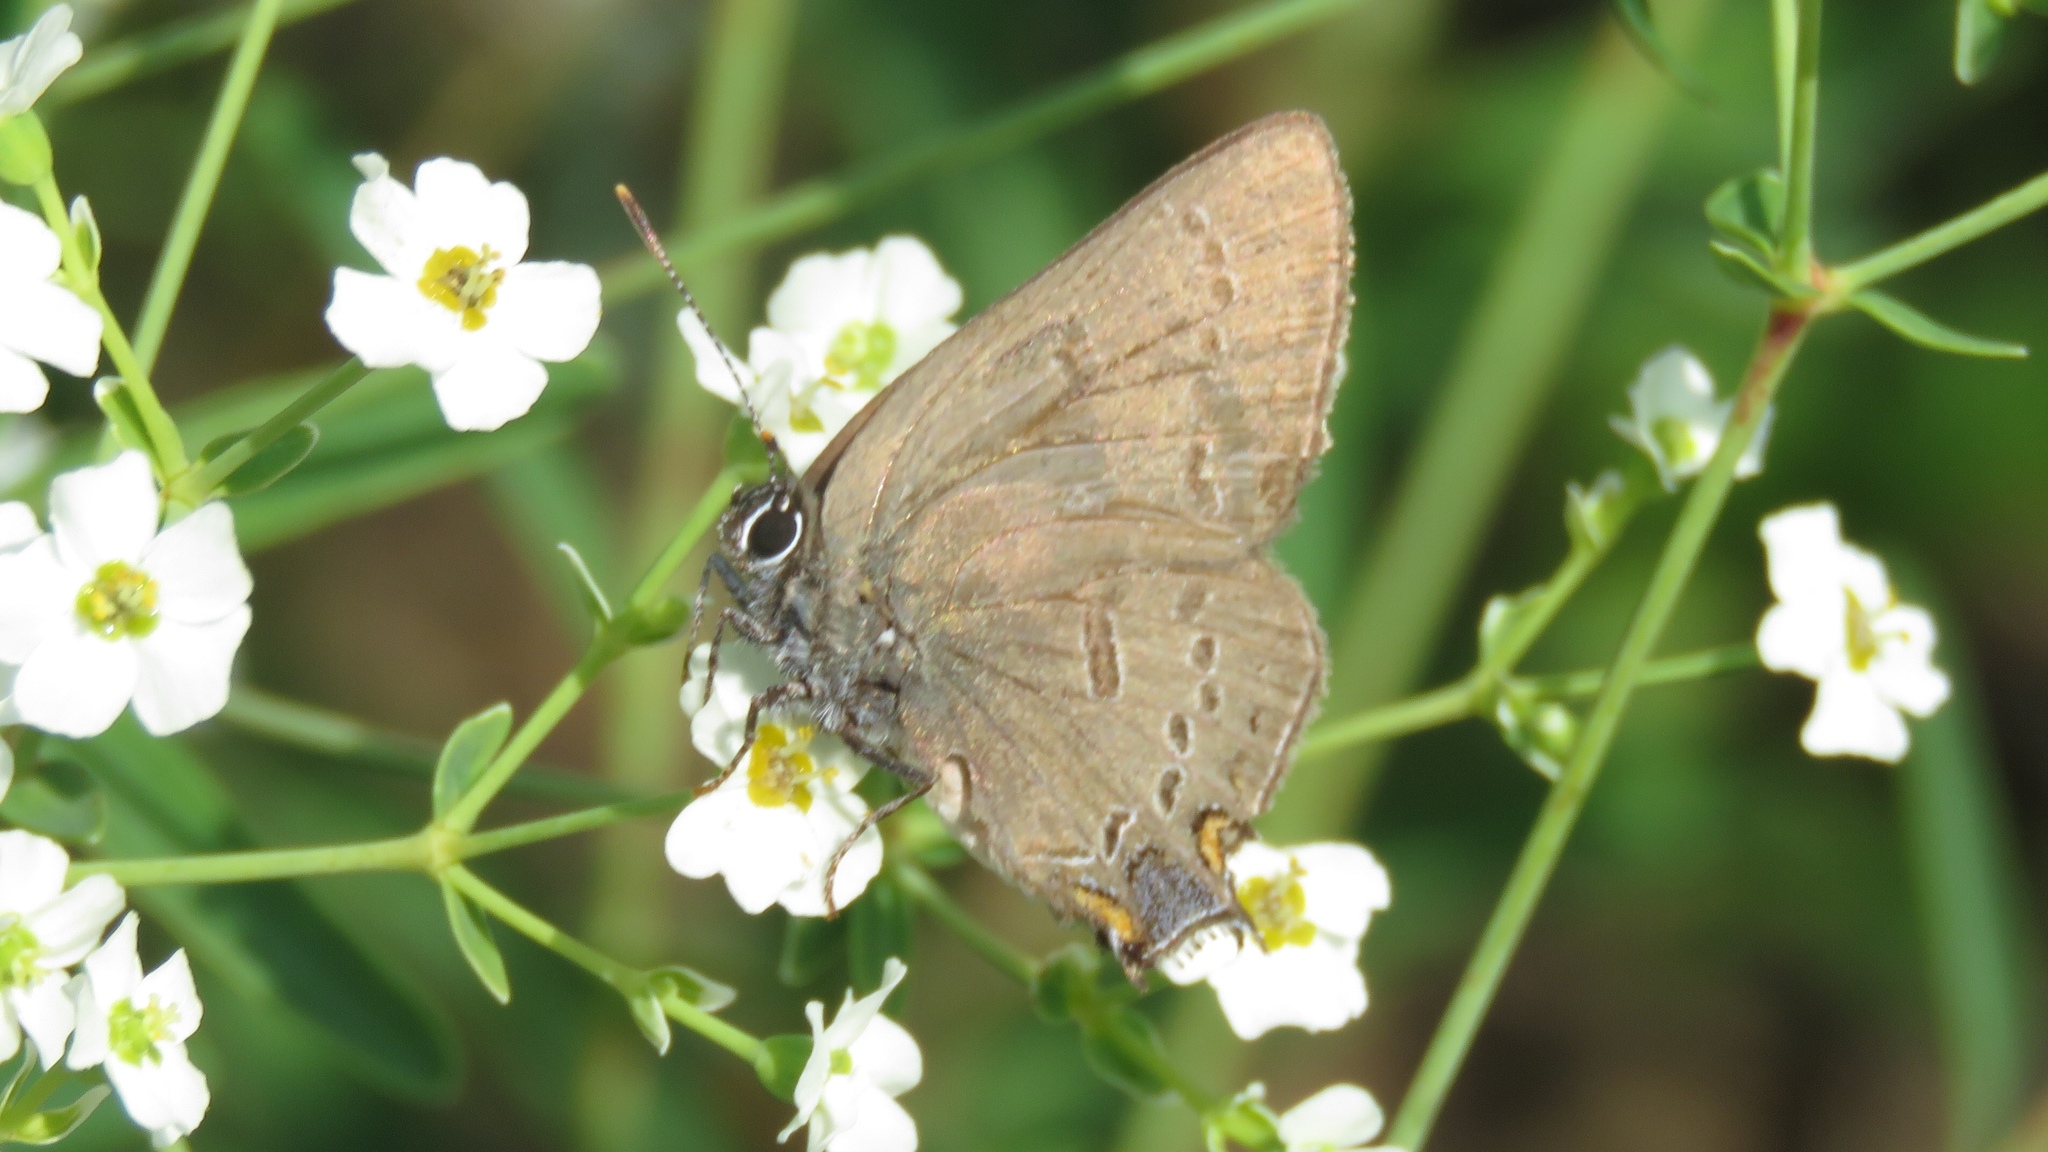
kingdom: Animalia
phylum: Arthropoda
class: Insecta
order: Lepidoptera
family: Lycaenidae
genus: Satyrium
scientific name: Satyrium edwardsii
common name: Edwards' hairstreak
